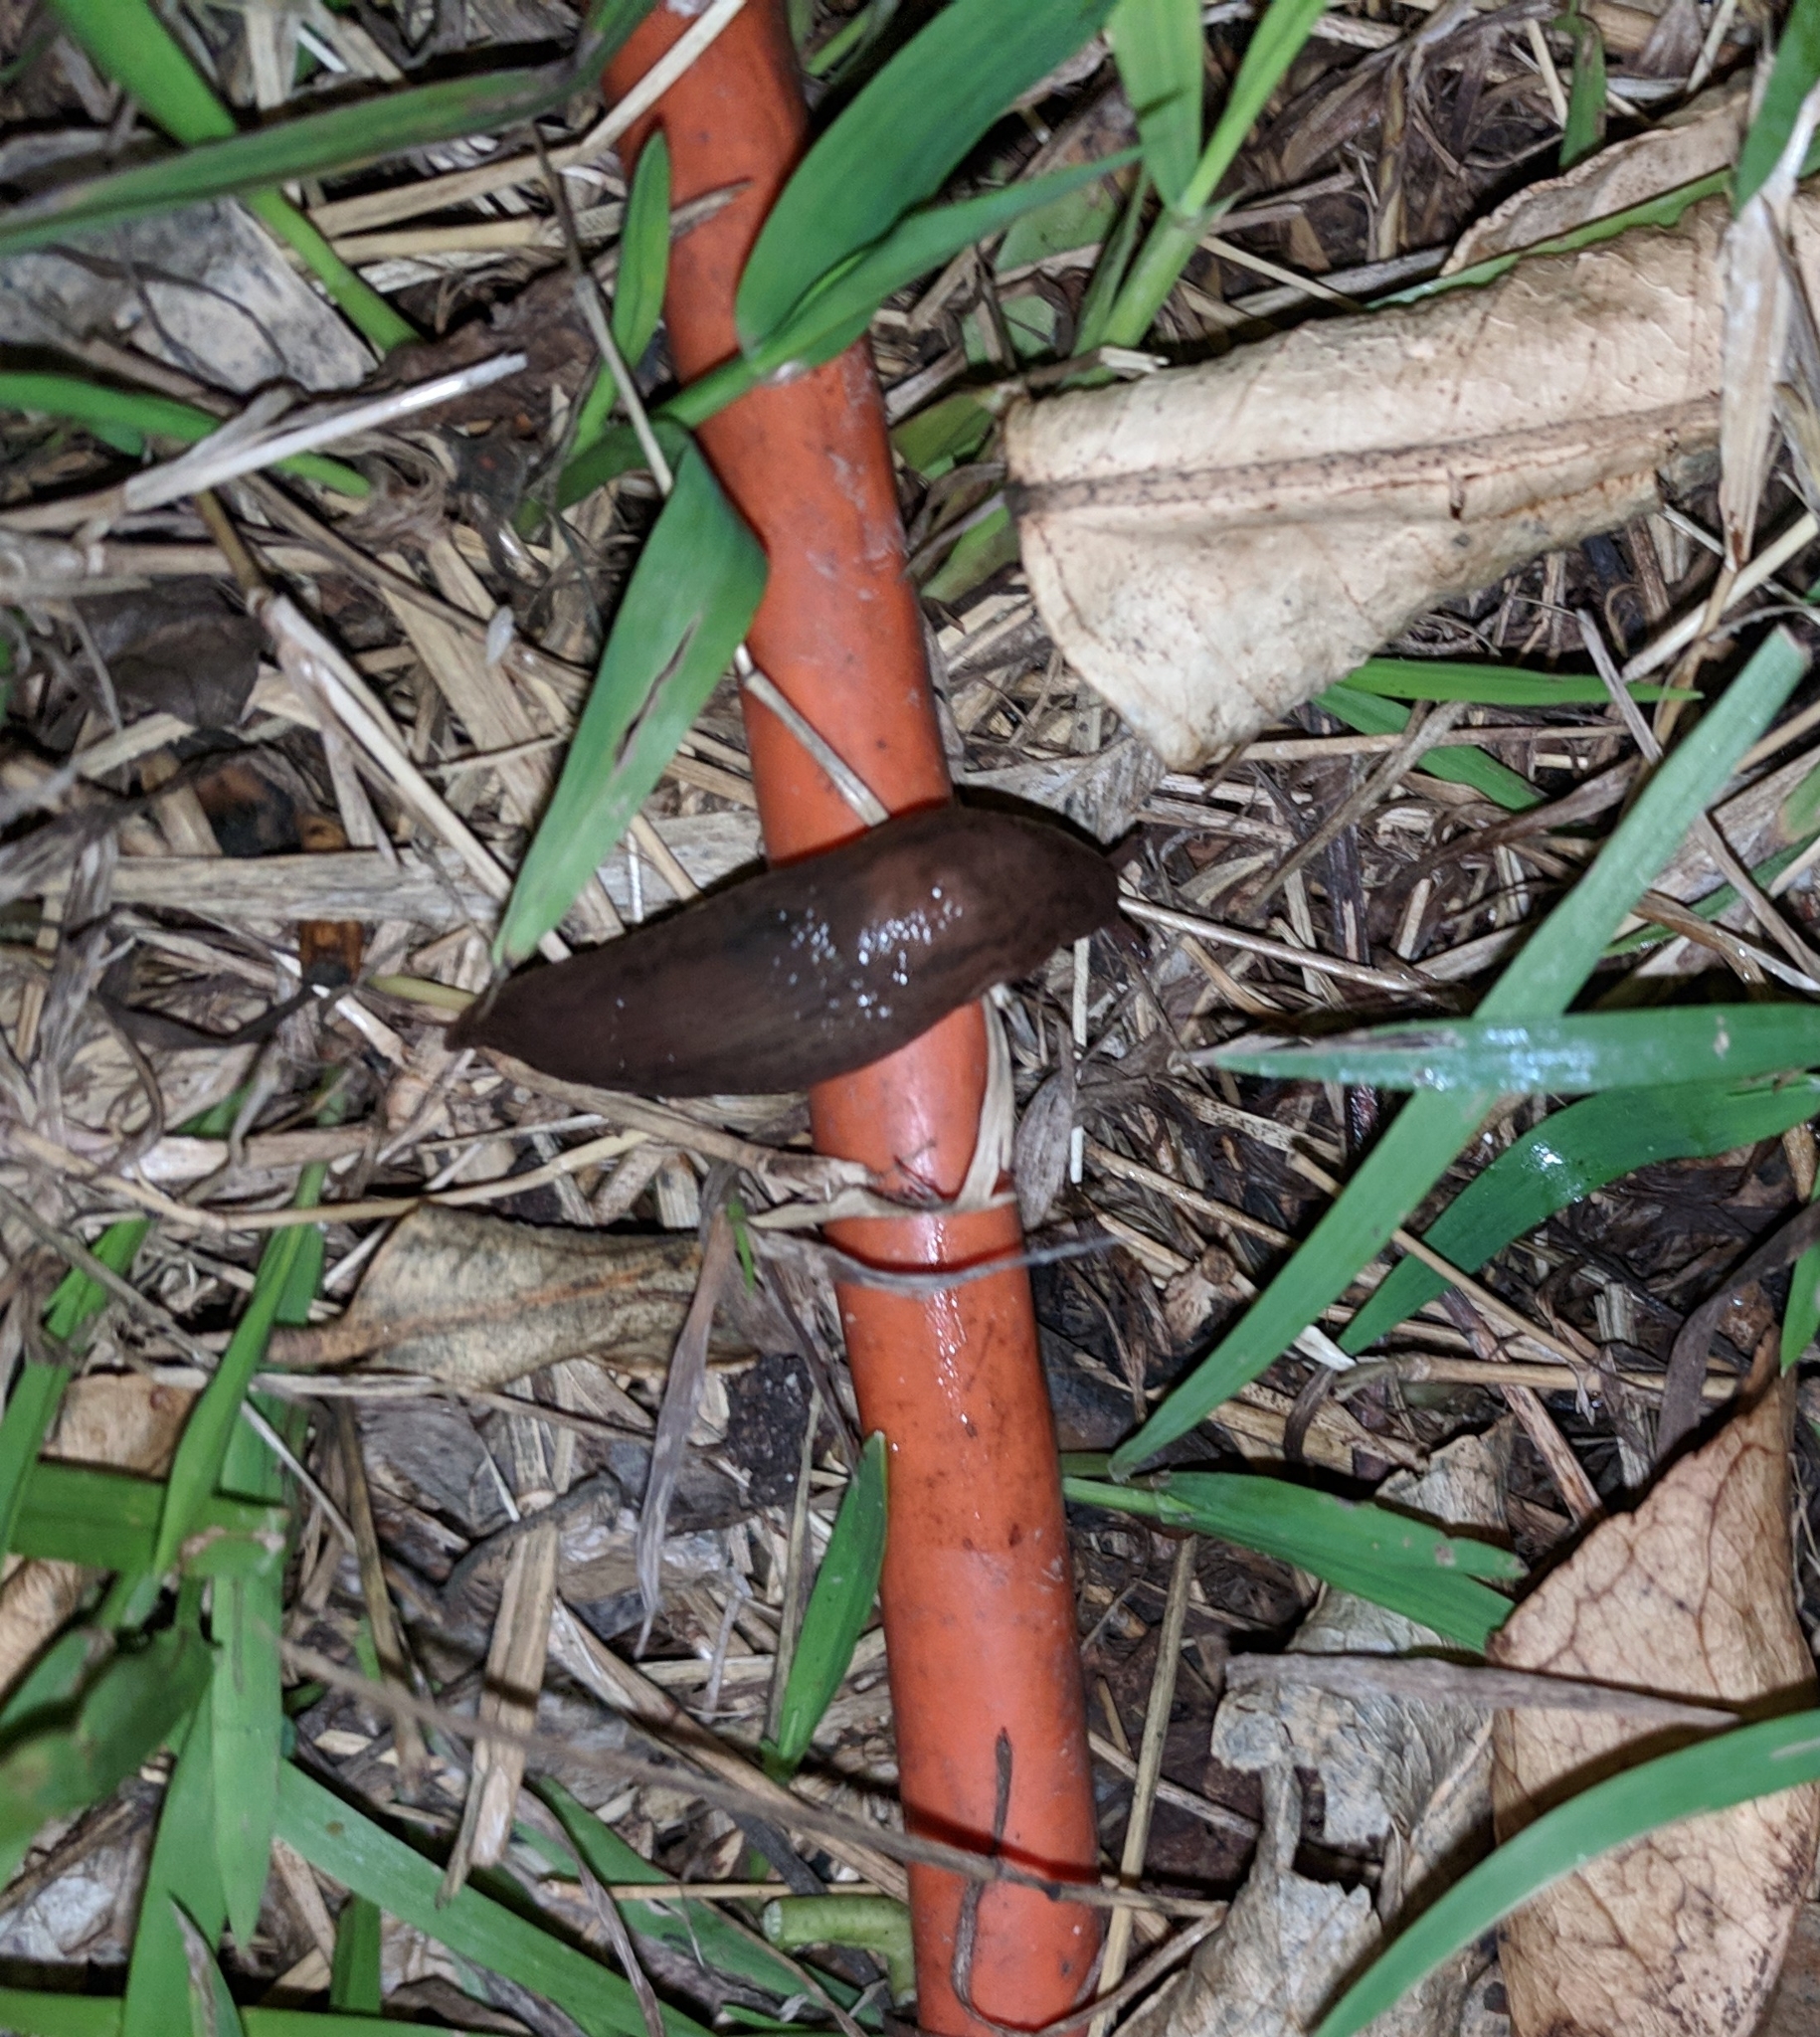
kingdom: Animalia
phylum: Mollusca
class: Gastropoda
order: Stylommatophora
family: Limacidae
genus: Ambigolimax
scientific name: Ambigolimax
